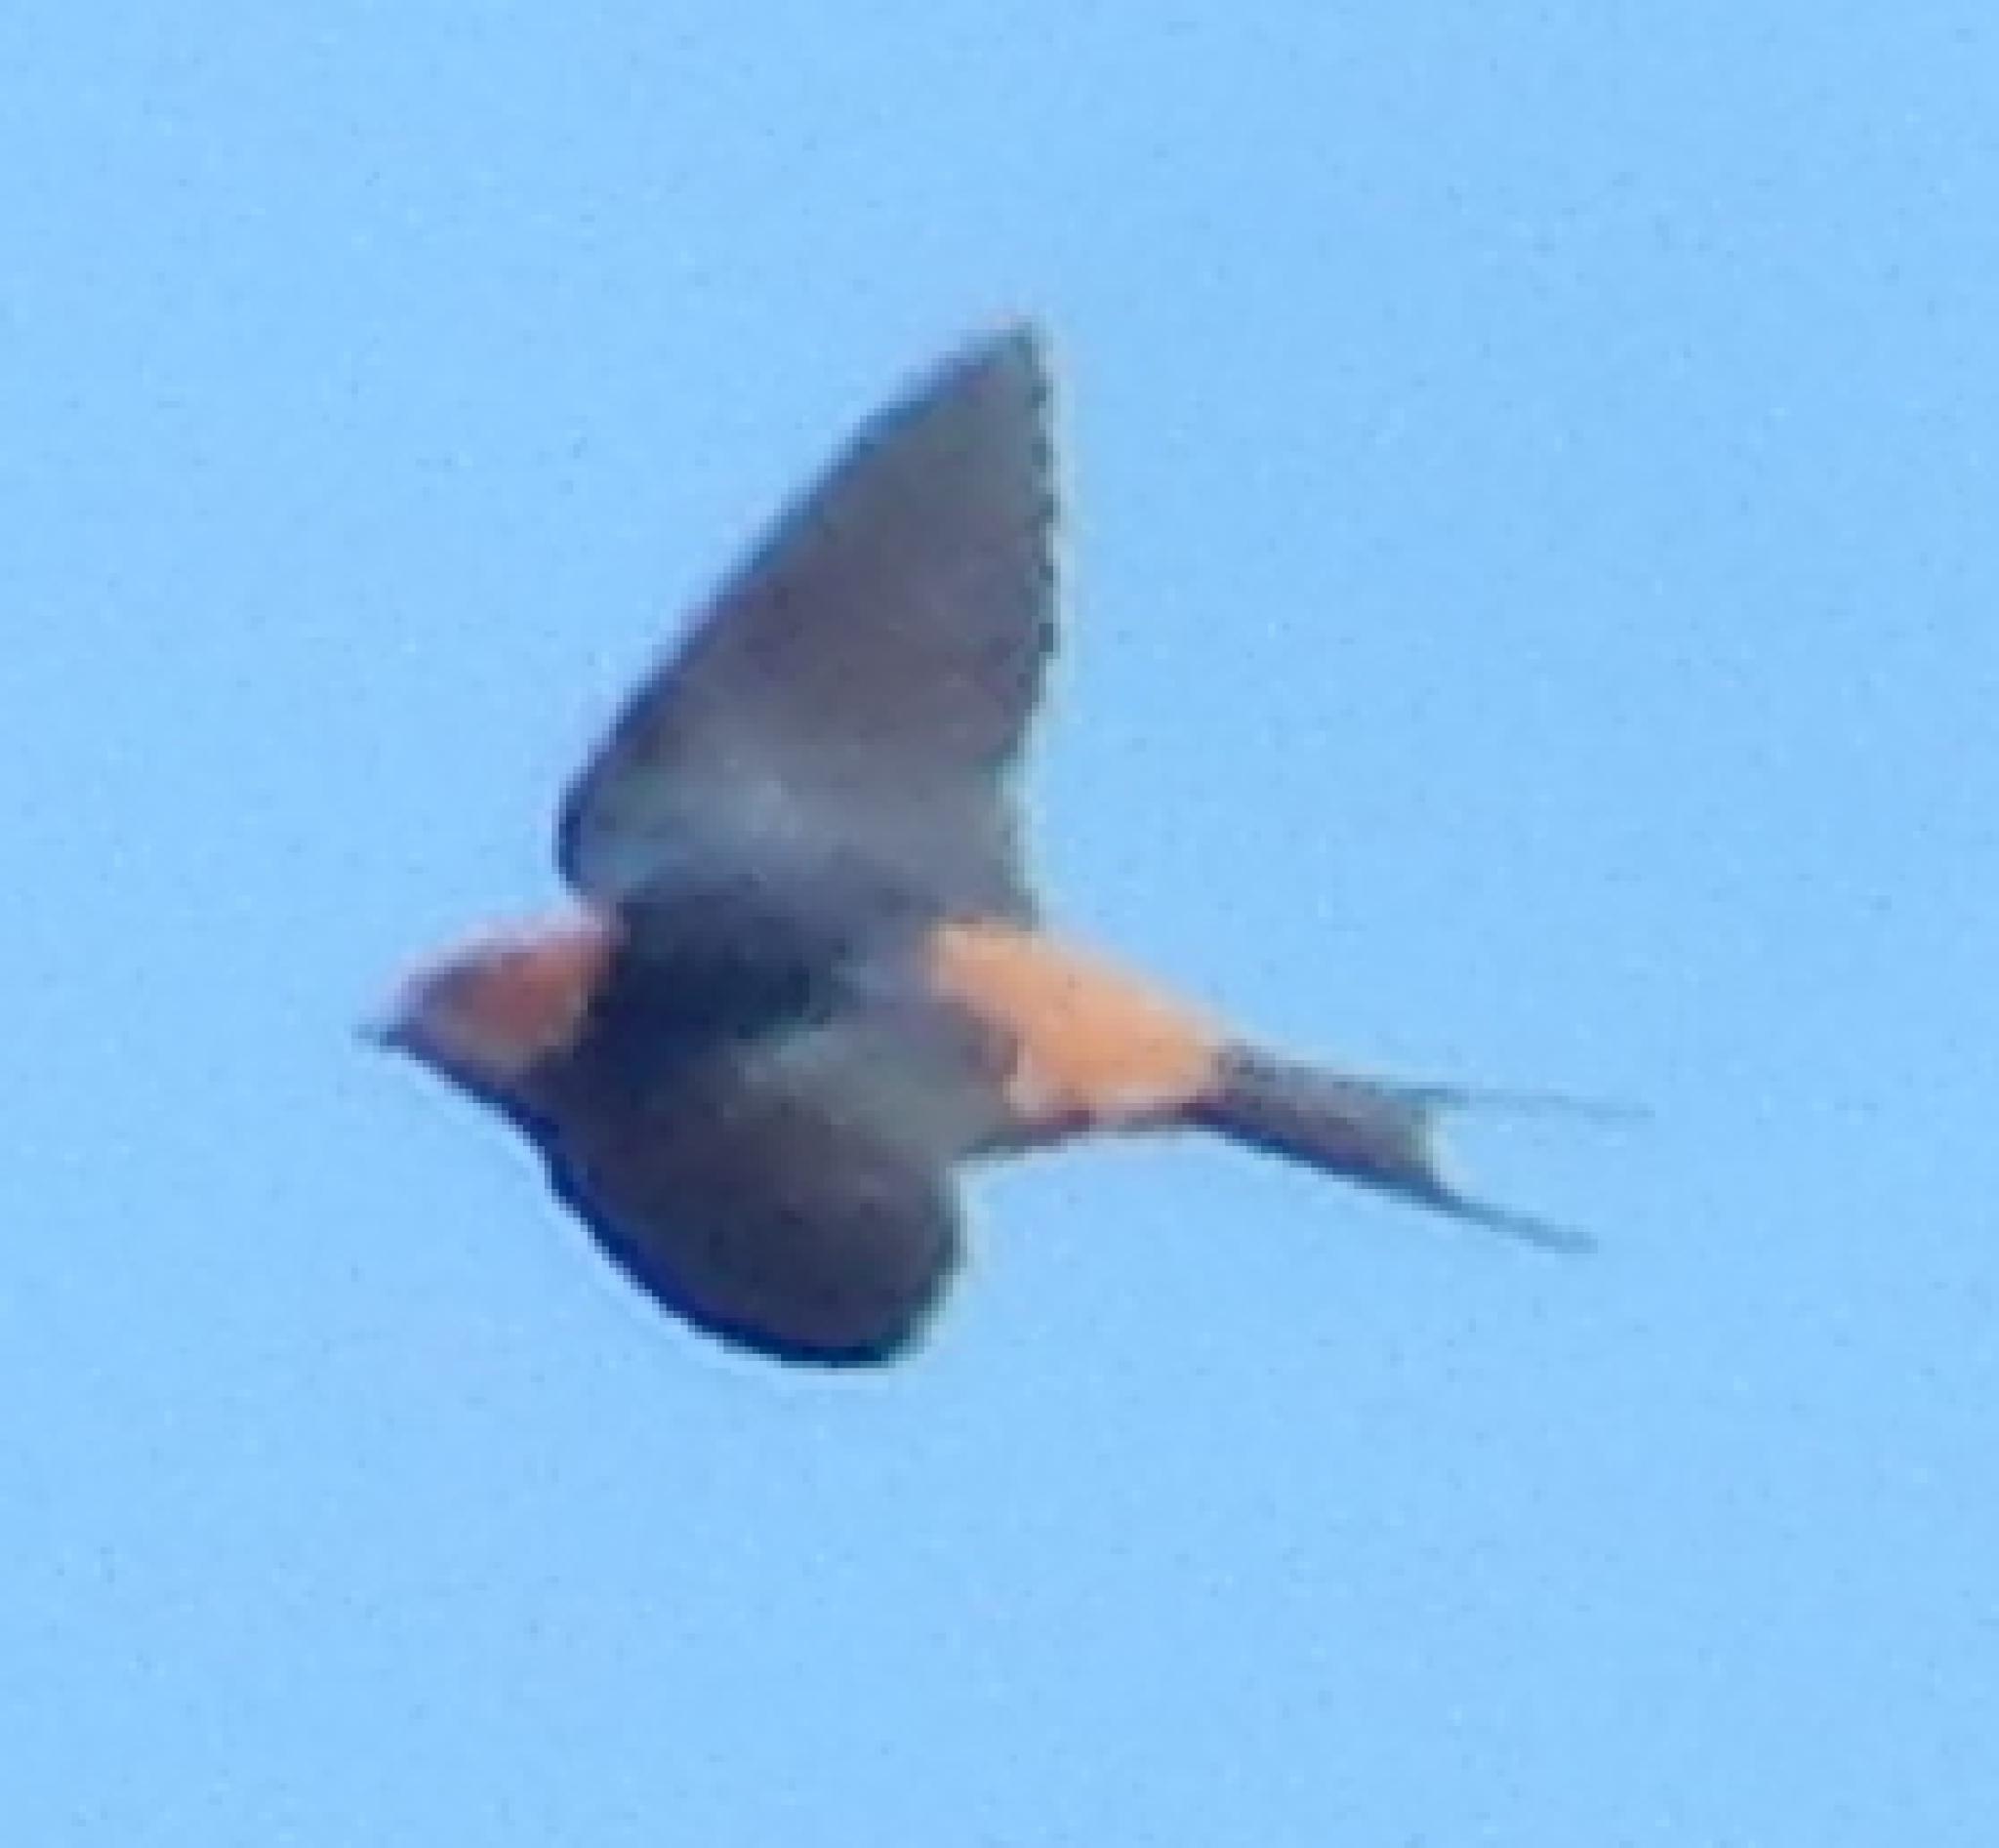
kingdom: Animalia
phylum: Chordata
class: Aves
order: Passeriformes
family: Hirundinidae
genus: Cecropis
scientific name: Cecropis cucullata
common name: Greater striped-swallow
